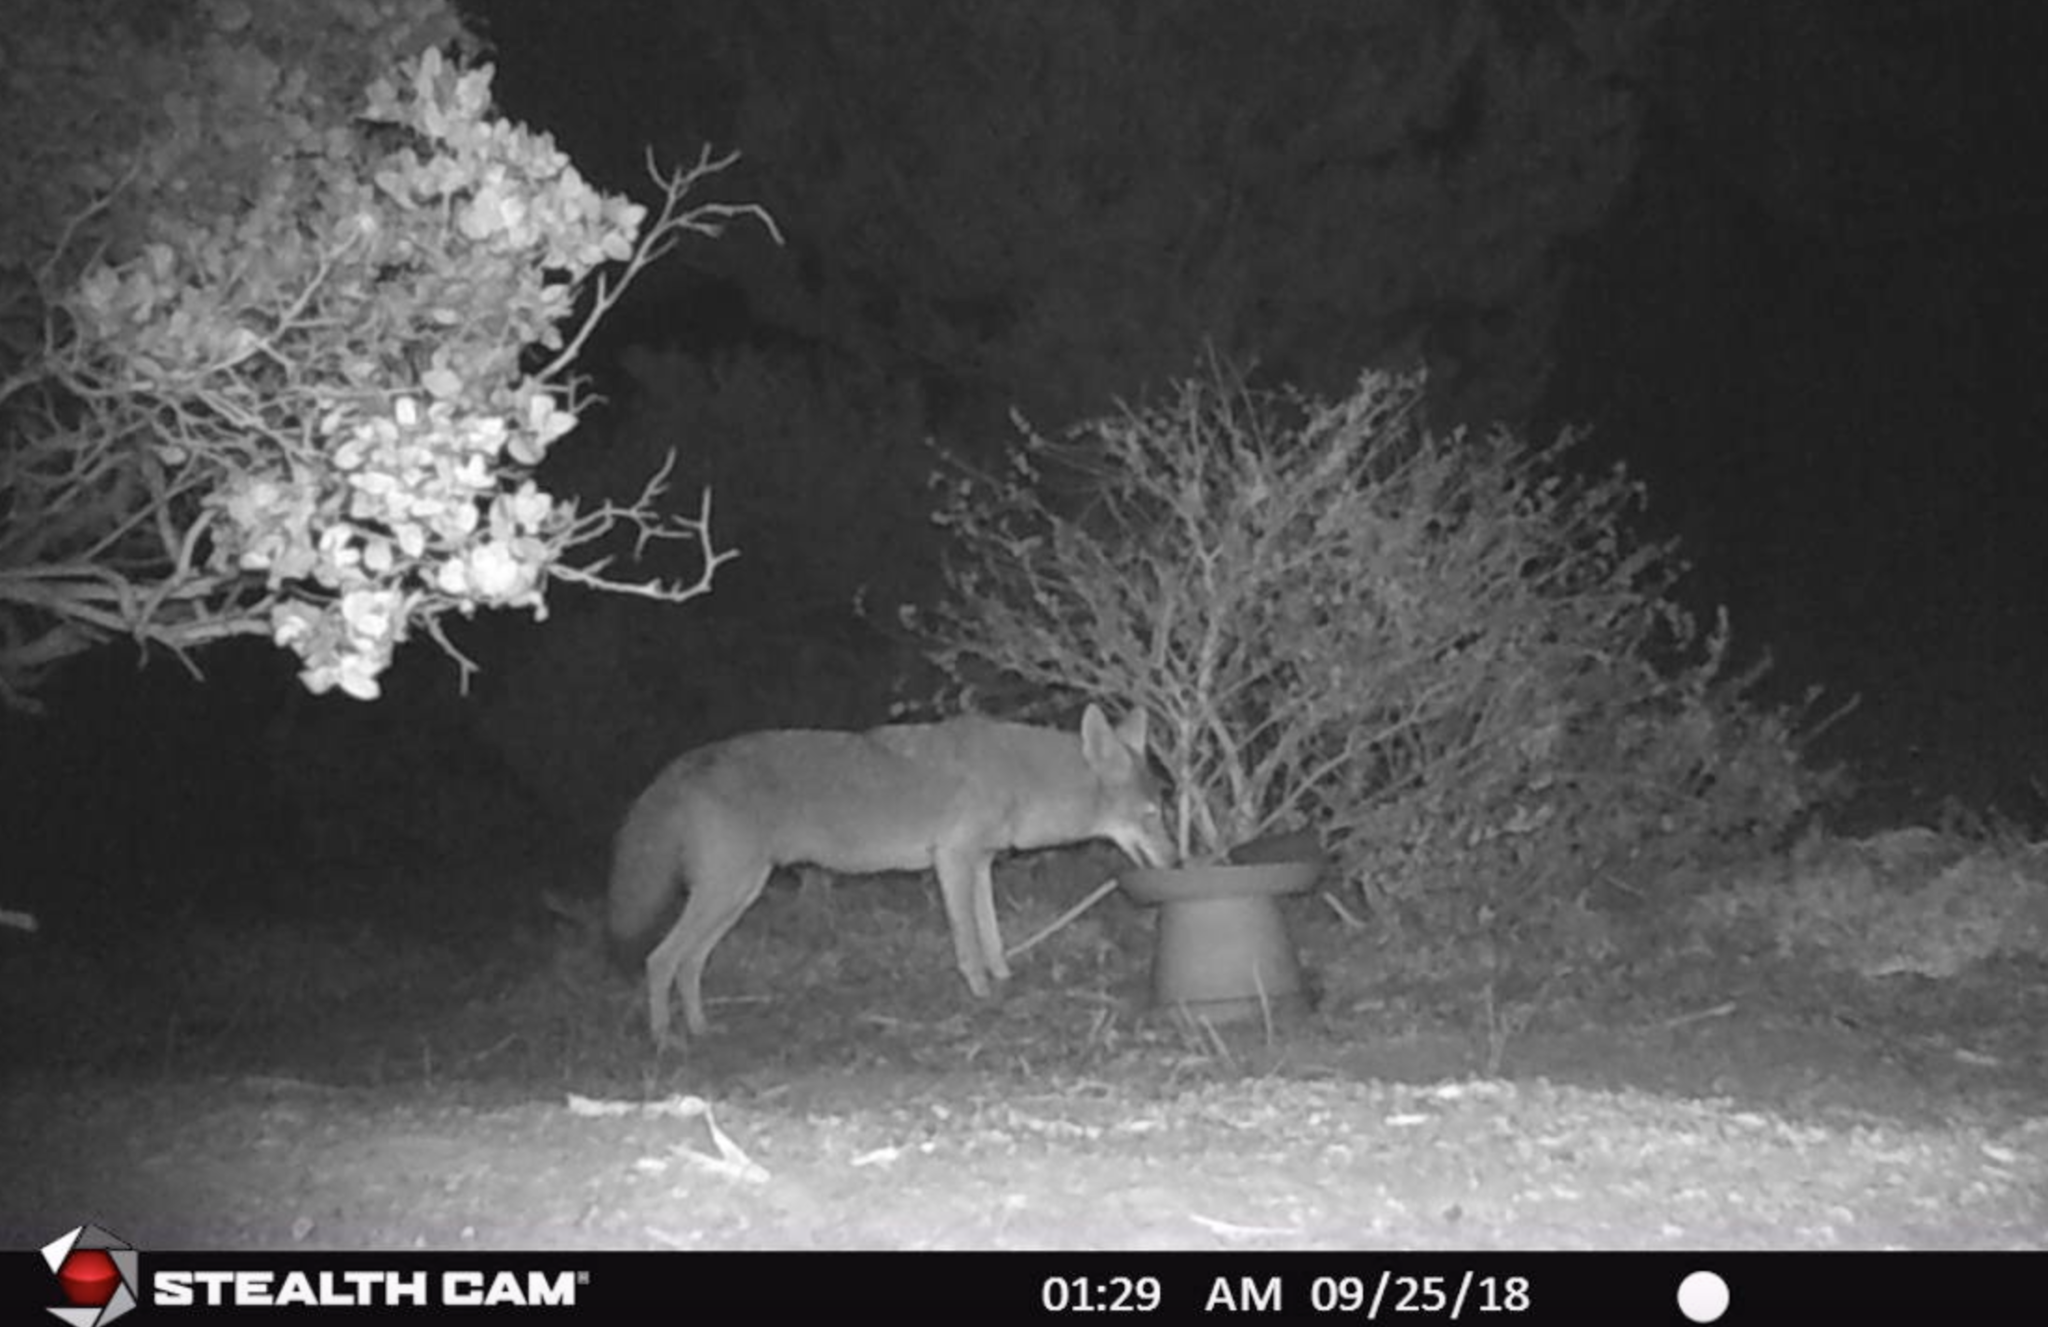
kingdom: Animalia
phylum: Chordata
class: Mammalia
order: Carnivora
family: Canidae
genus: Canis
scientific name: Canis latrans
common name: Coyote
